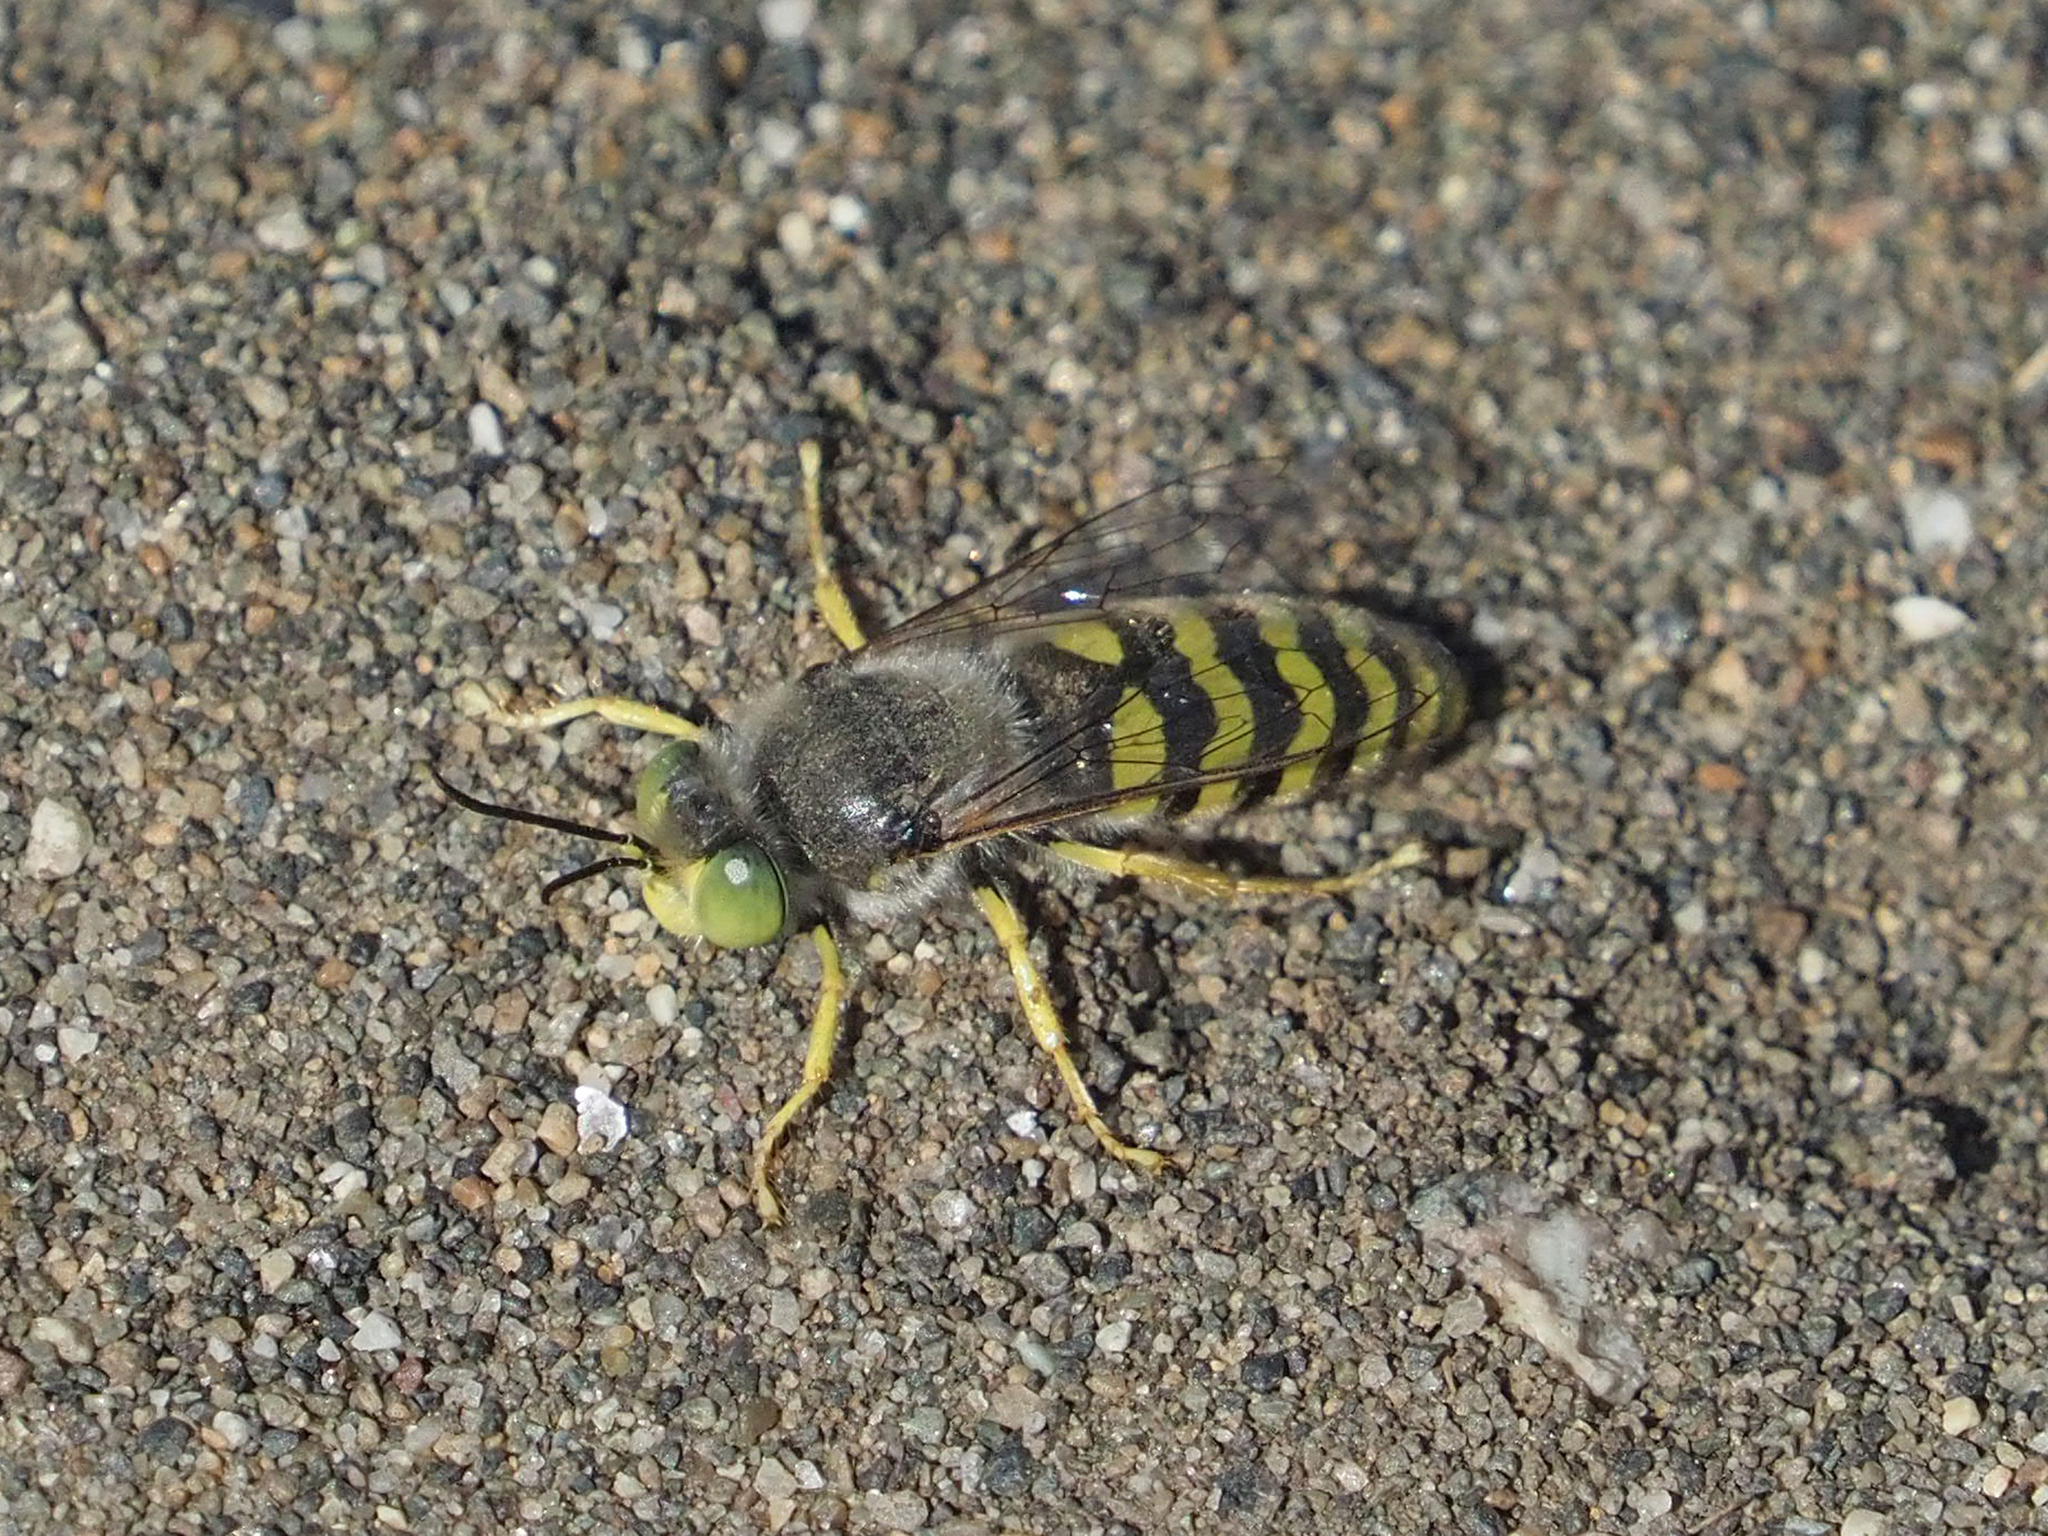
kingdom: Animalia
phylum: Arthropoda
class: Insecta
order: Hymenoptera
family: Crabronidae
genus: Bembix
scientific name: Bembix americana
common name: American sand wasp
